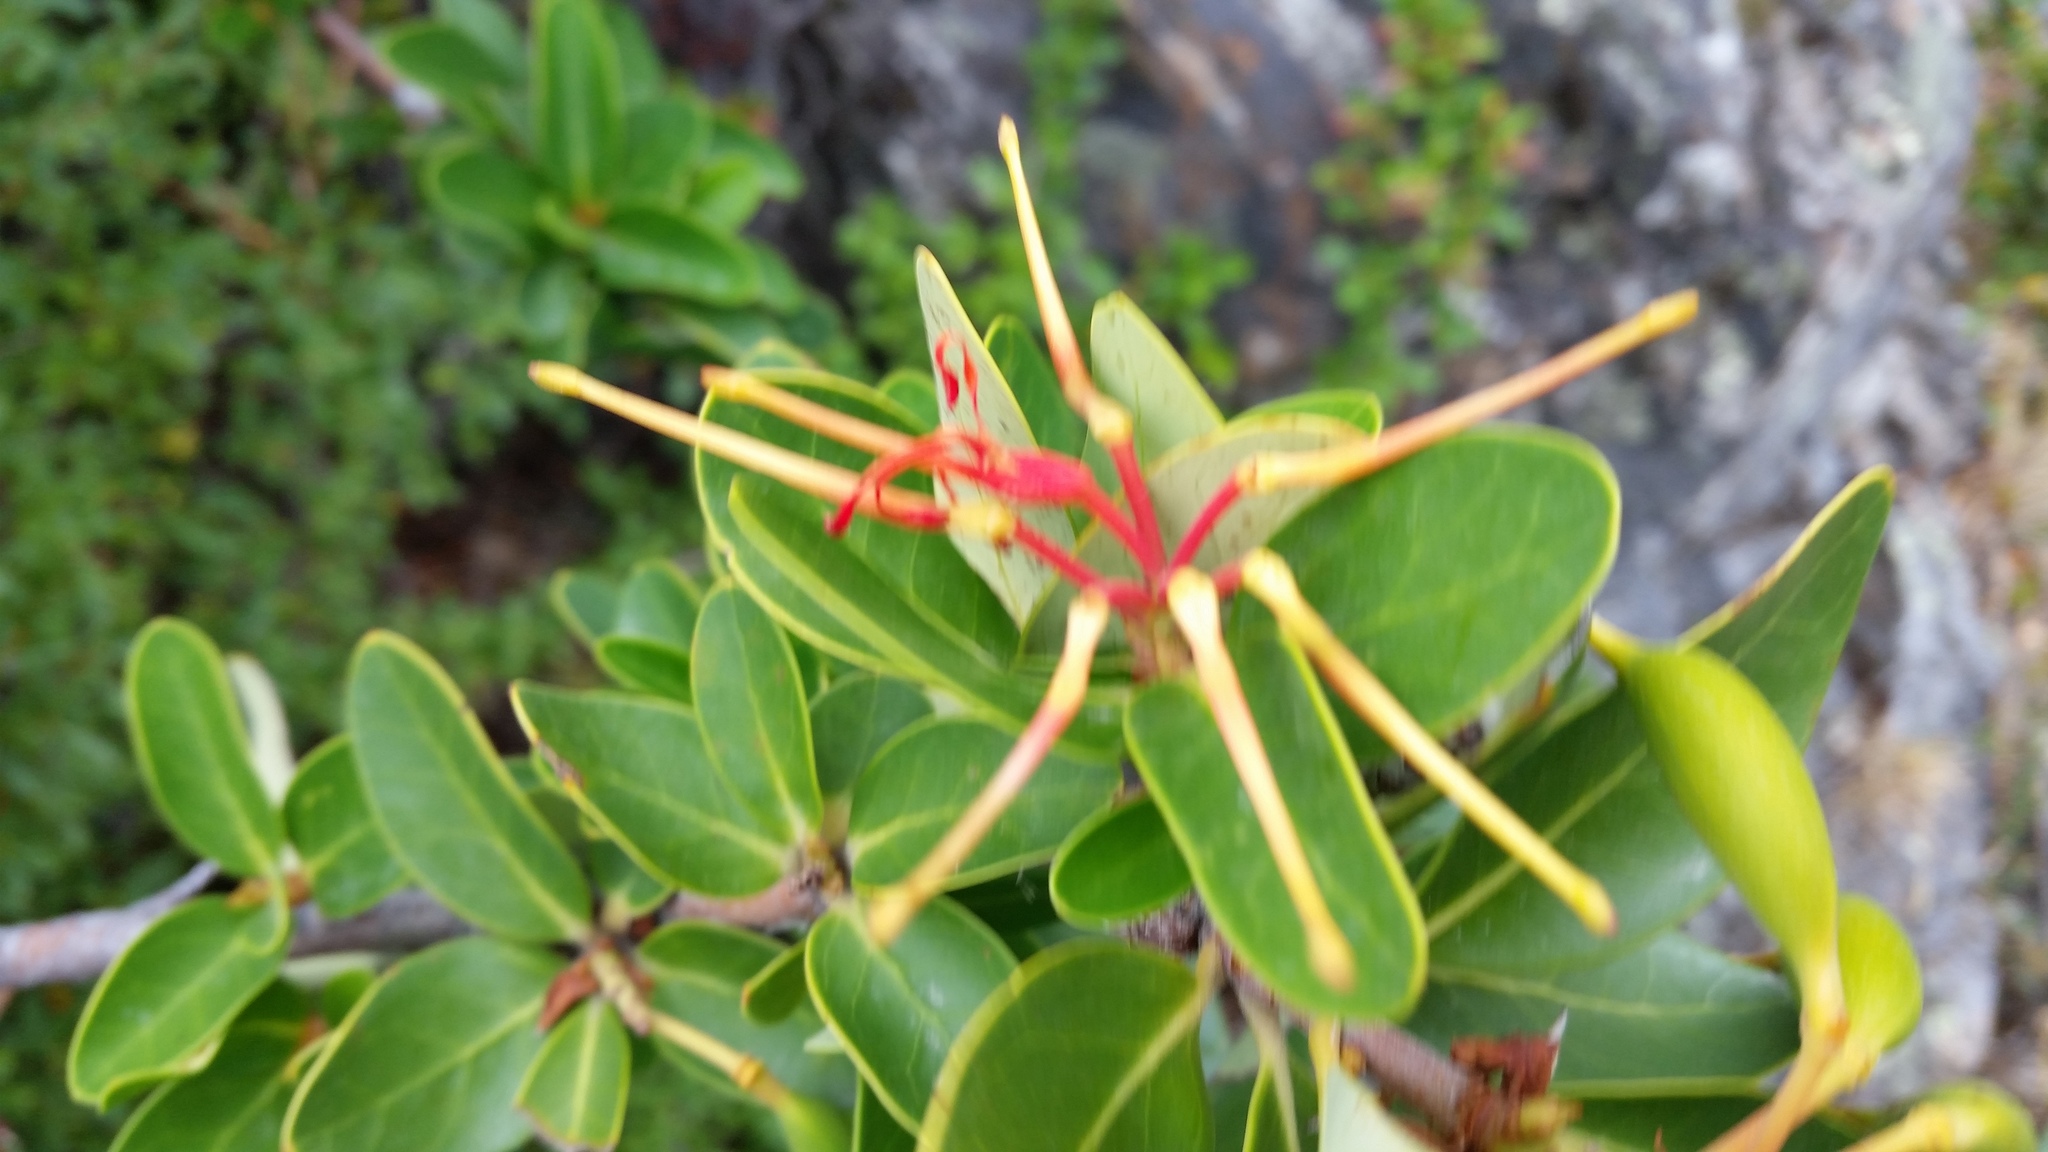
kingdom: Plantae
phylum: Tracheophyta
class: Magnoliopsida
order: Proteales
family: Proteaceae
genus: Embothrium
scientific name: Embothrium coccineum
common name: Chilean firebush
